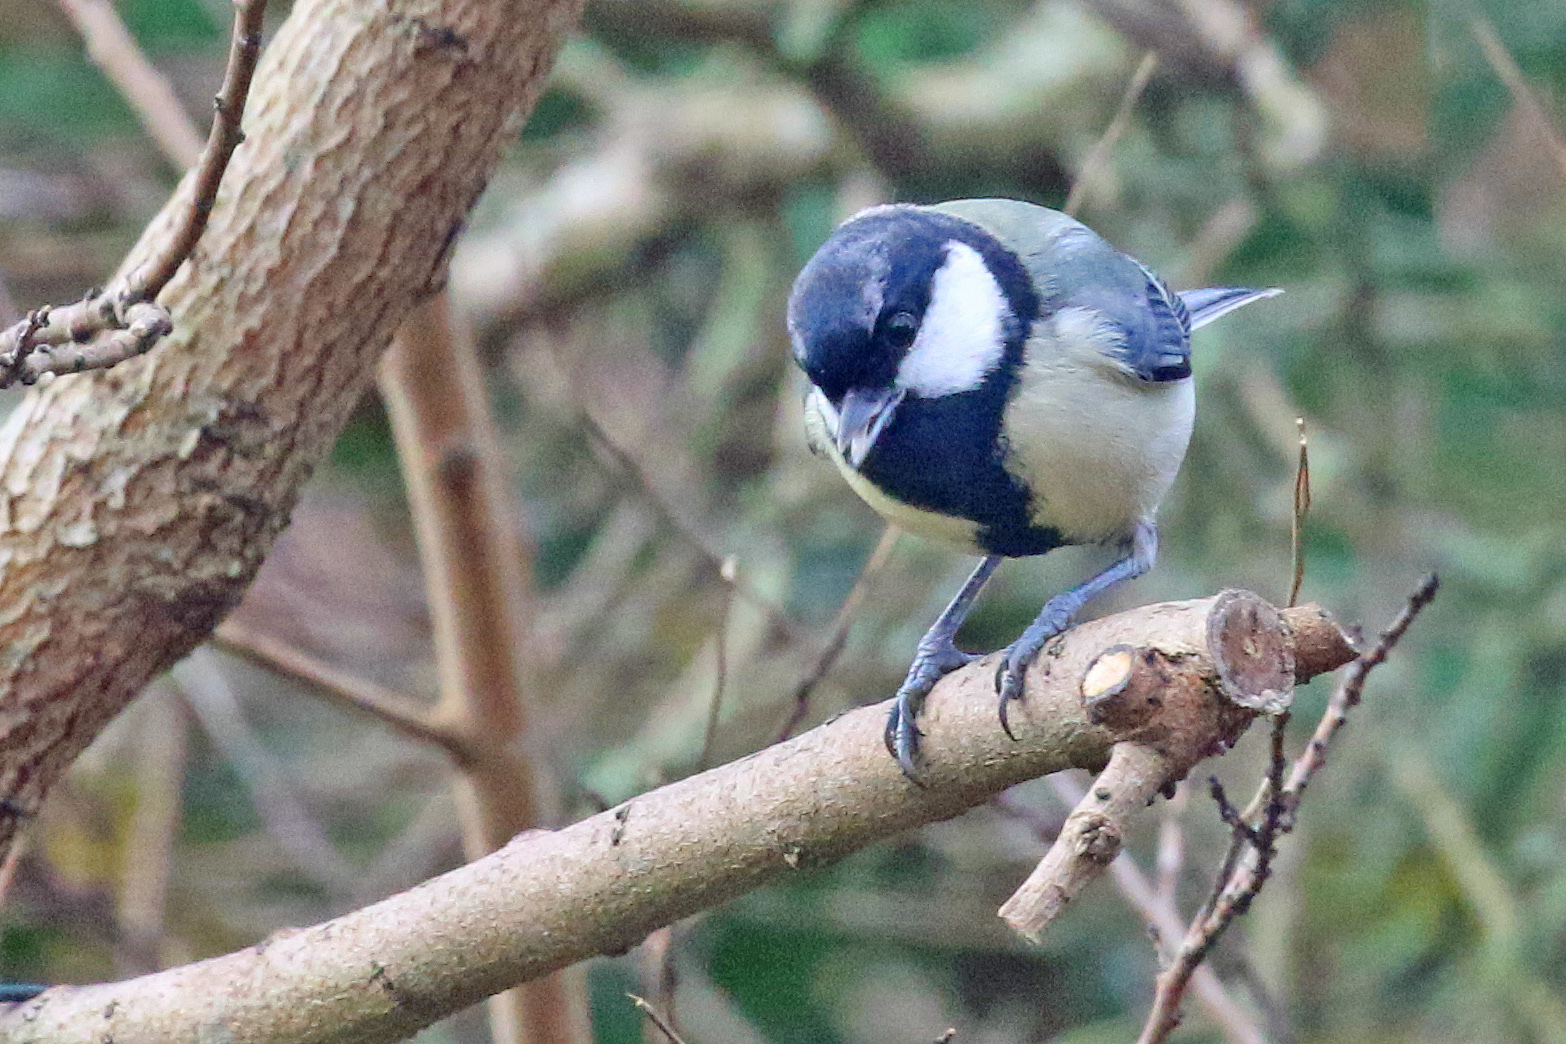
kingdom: Animalia
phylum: Chordata
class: Aves
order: Passeriformes
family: Paridae
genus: Parus
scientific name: Parus major
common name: Great tit
